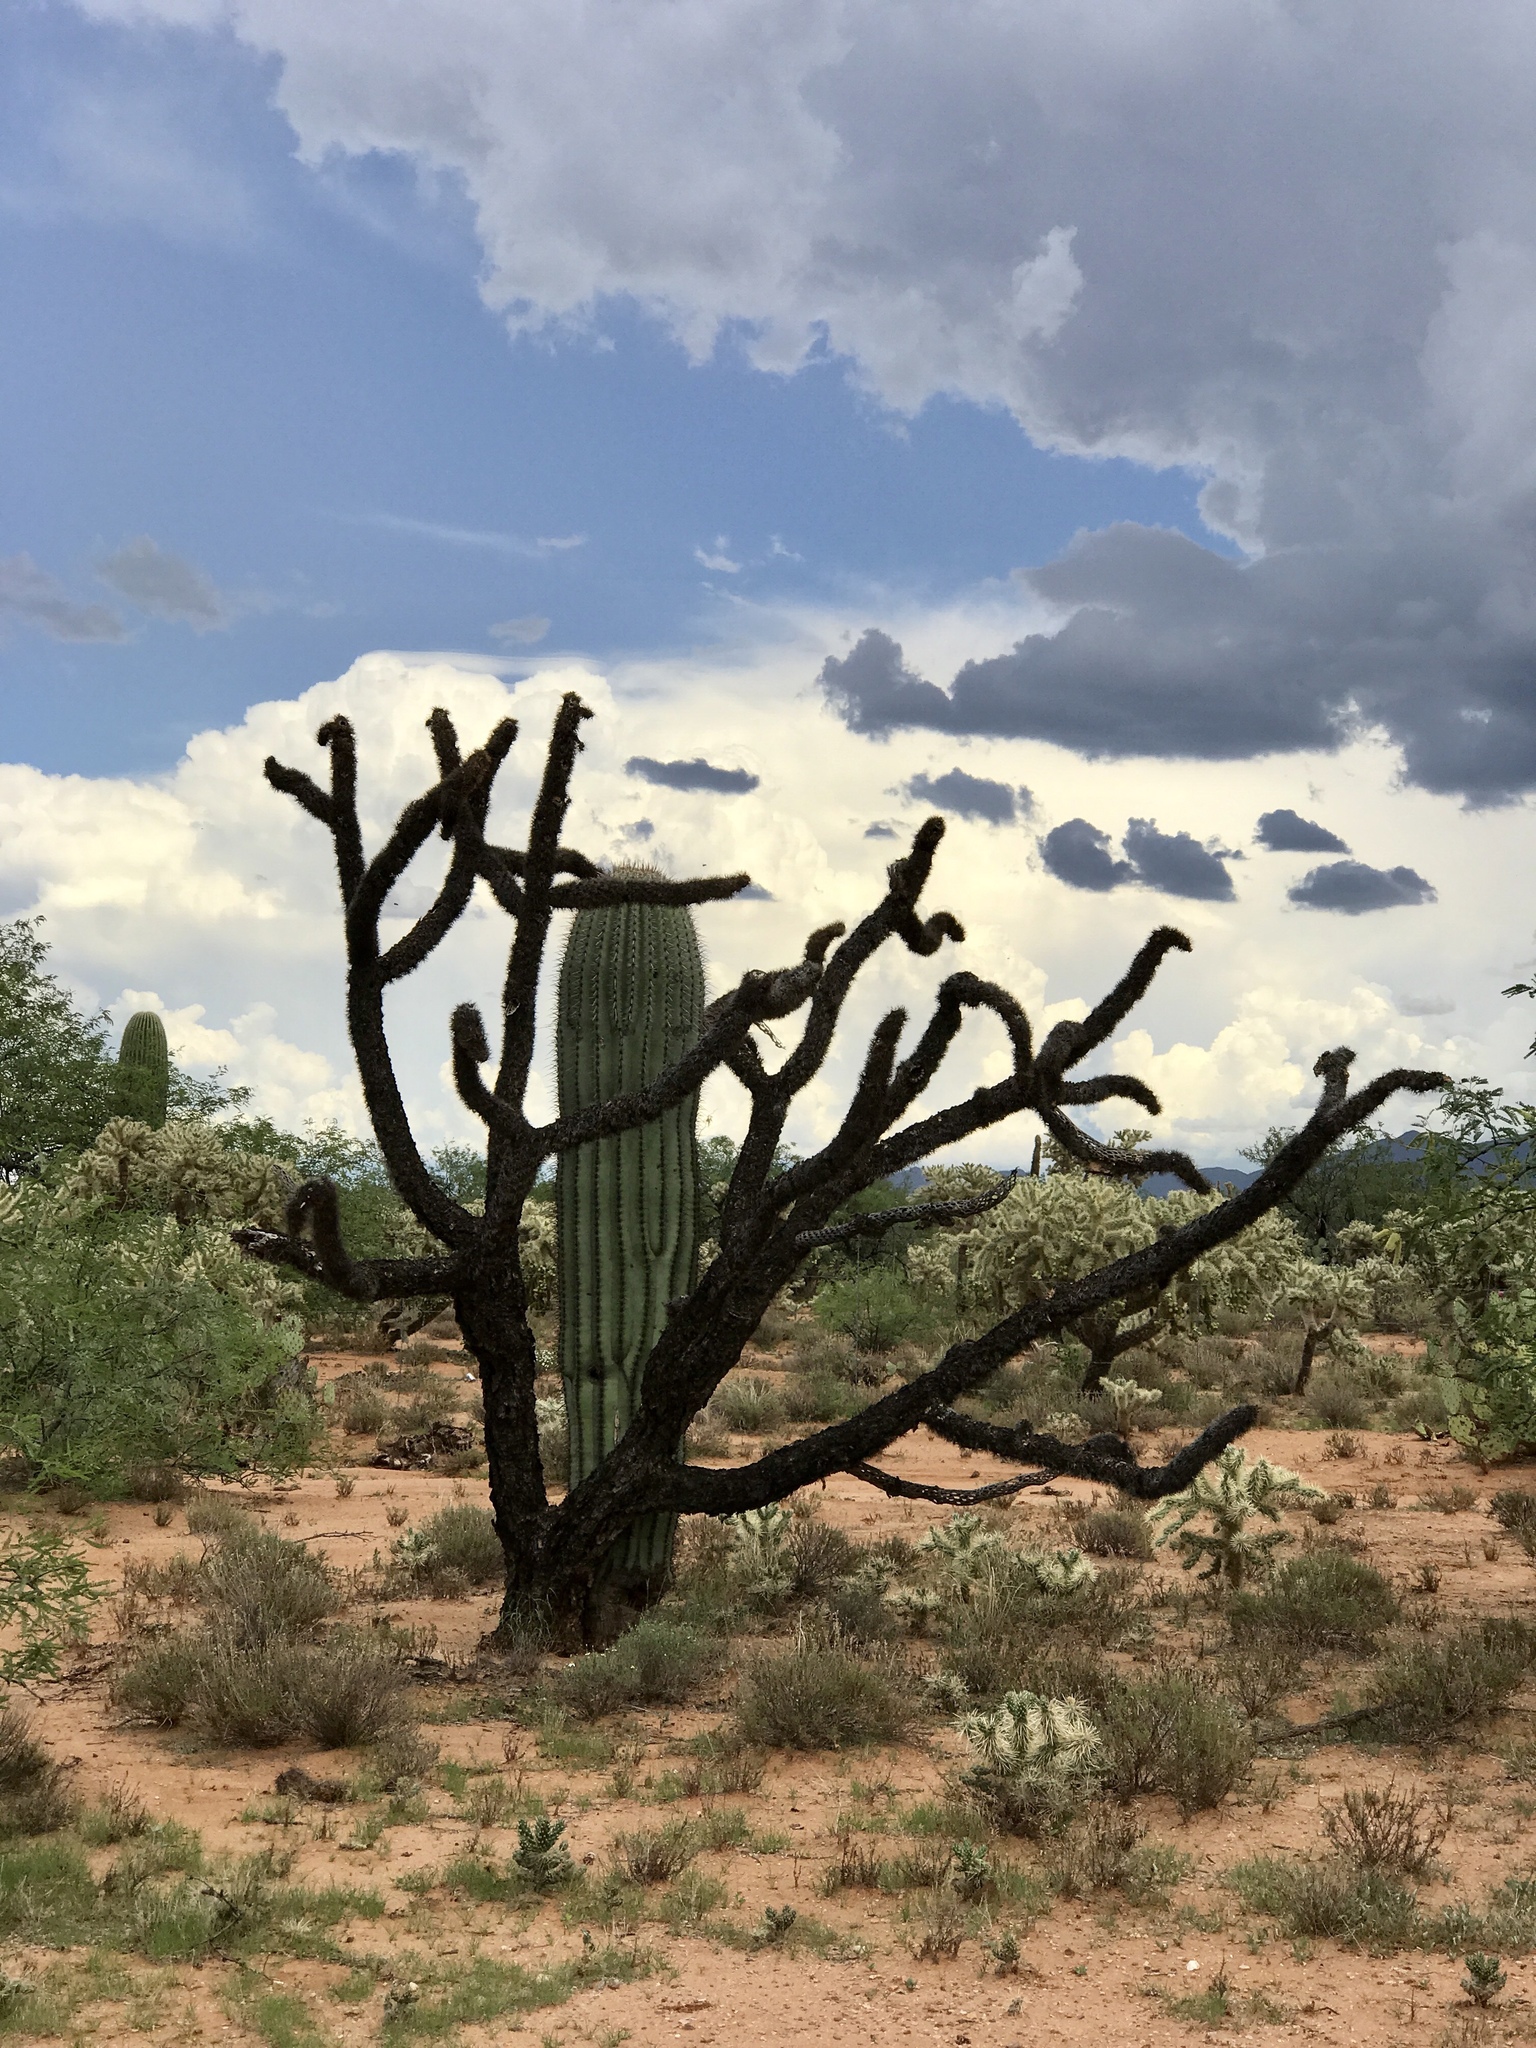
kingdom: Plantae
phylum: Tracheophyta
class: Magnoliopsida
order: Caryophyllales
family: Cactaceae
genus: Carnegiea
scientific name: Carnegiea gigantea
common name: Saguaro
